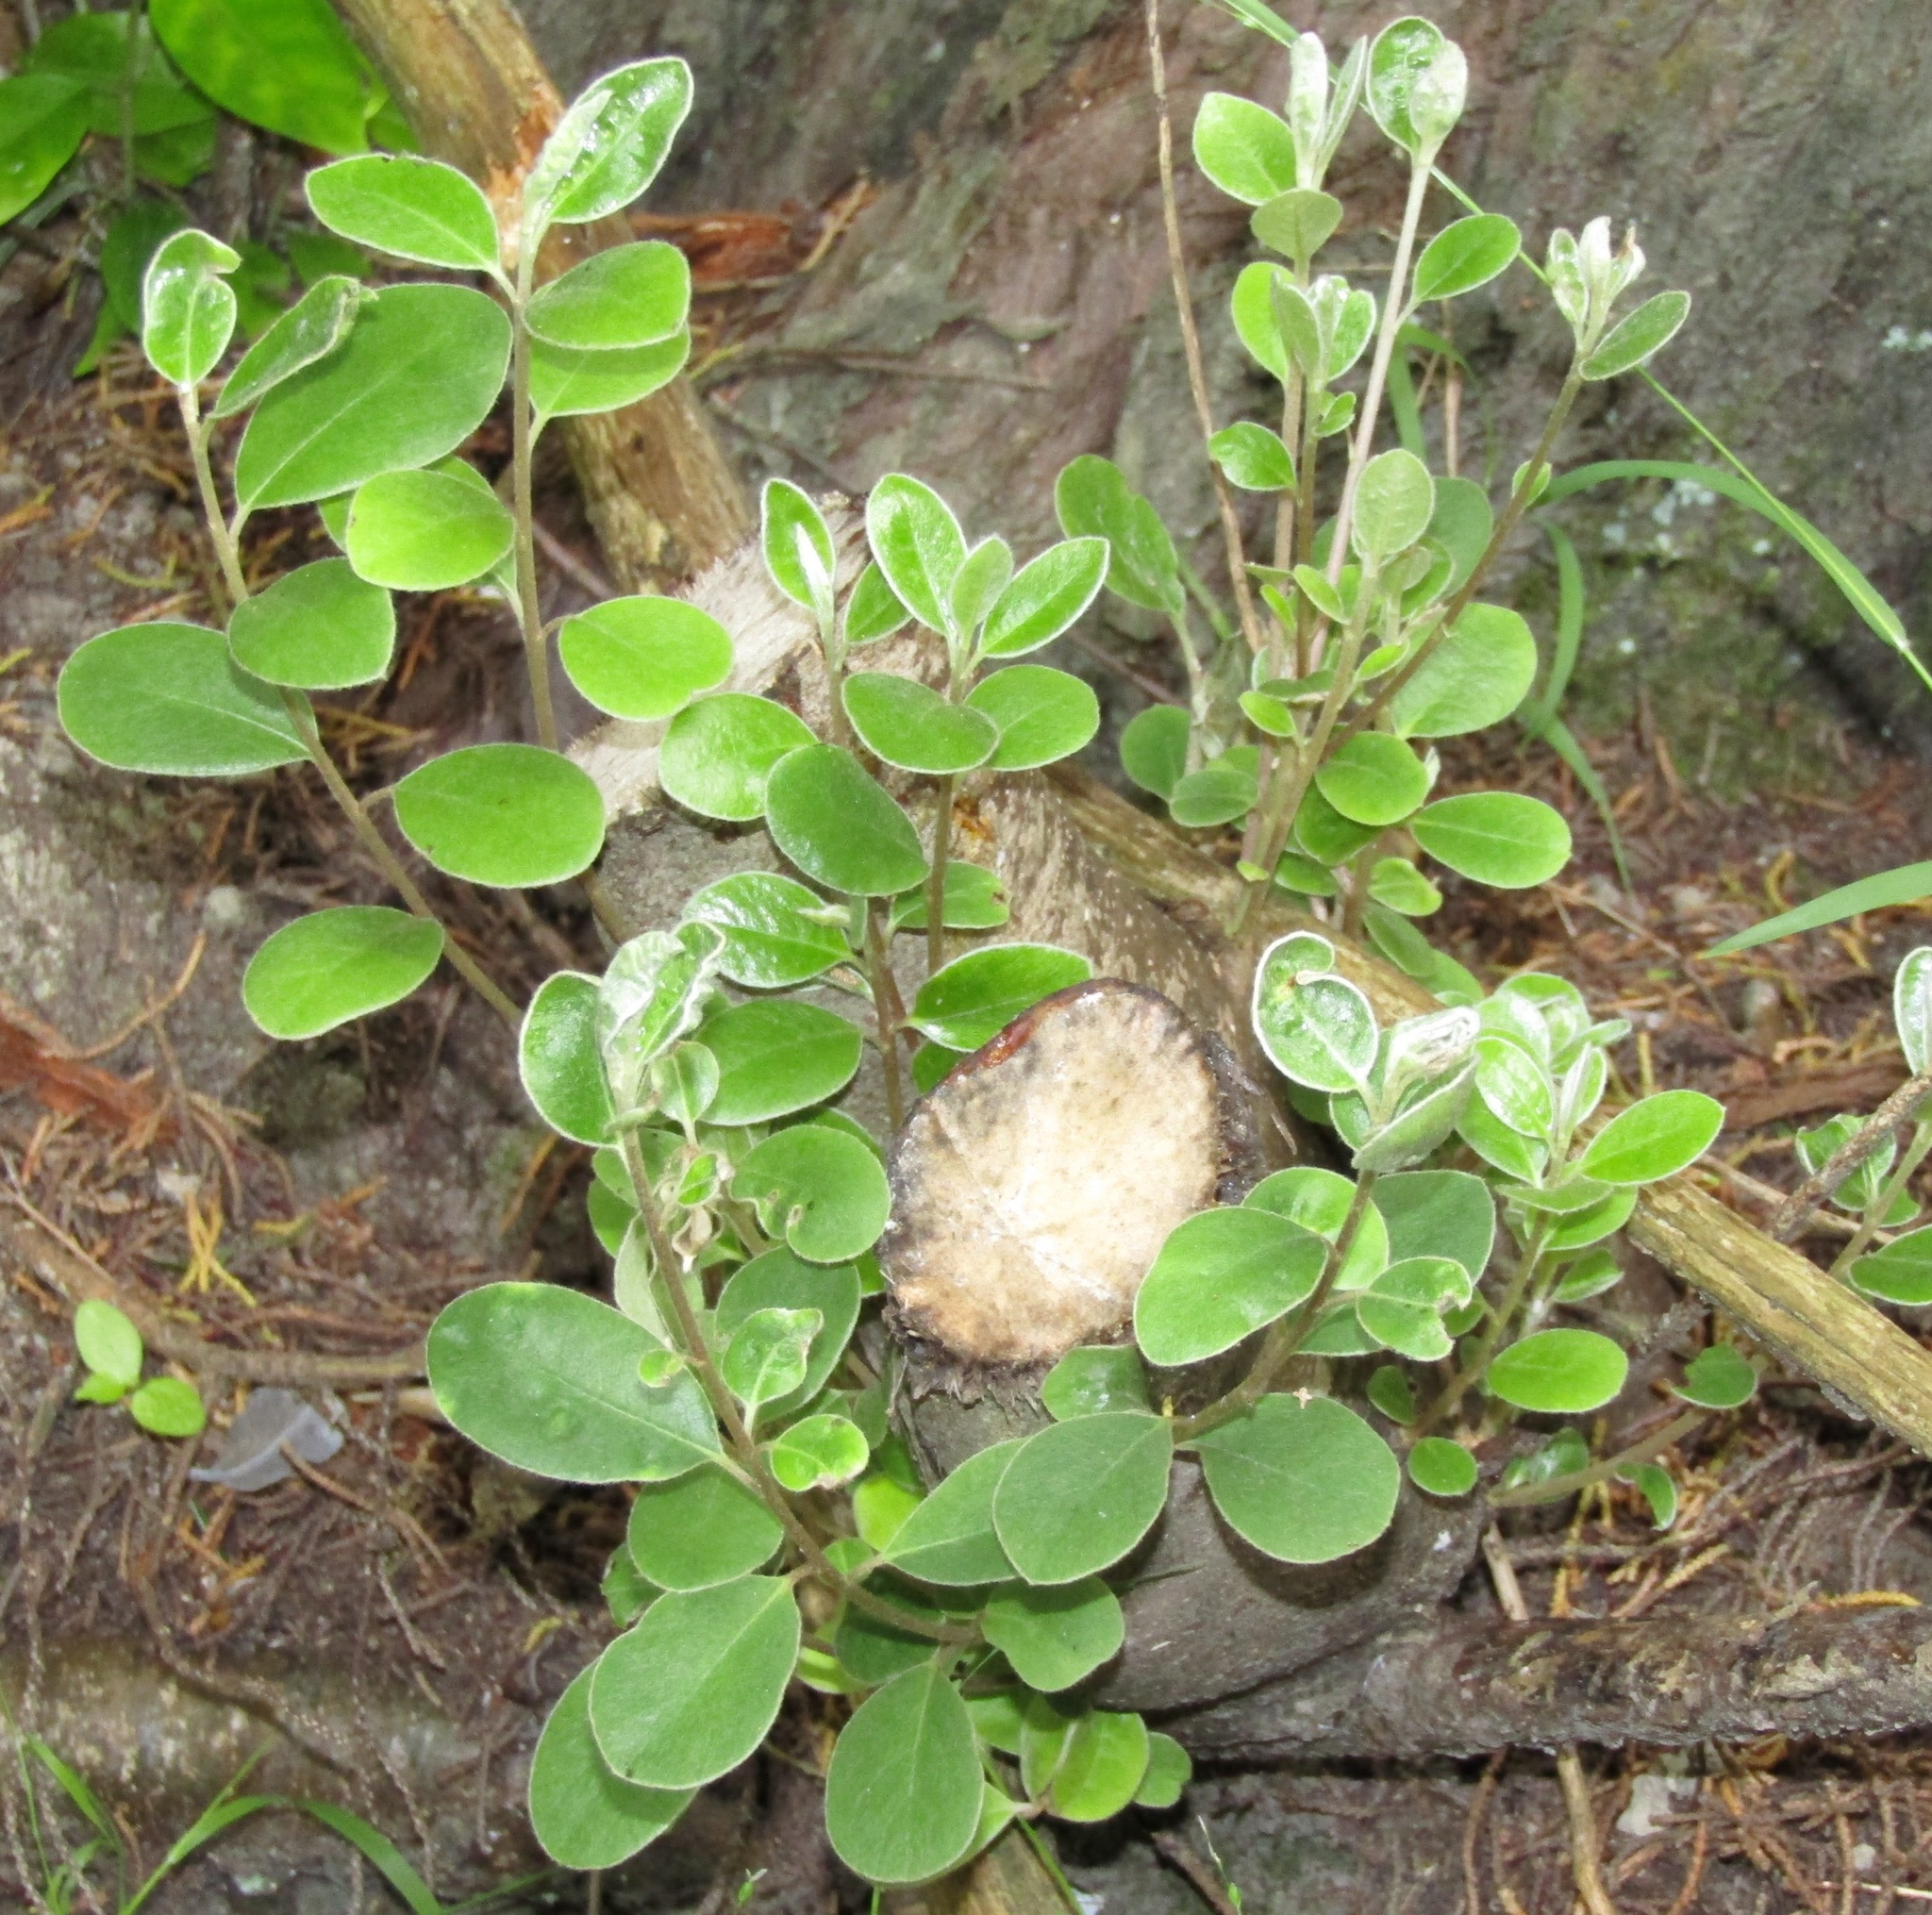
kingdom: Plantae
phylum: Tracheophyta
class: Magnoliopsida
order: Apiales
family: Pittosporaceae
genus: Pittosporum
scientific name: Pittosporum crassifolium
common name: Karo
